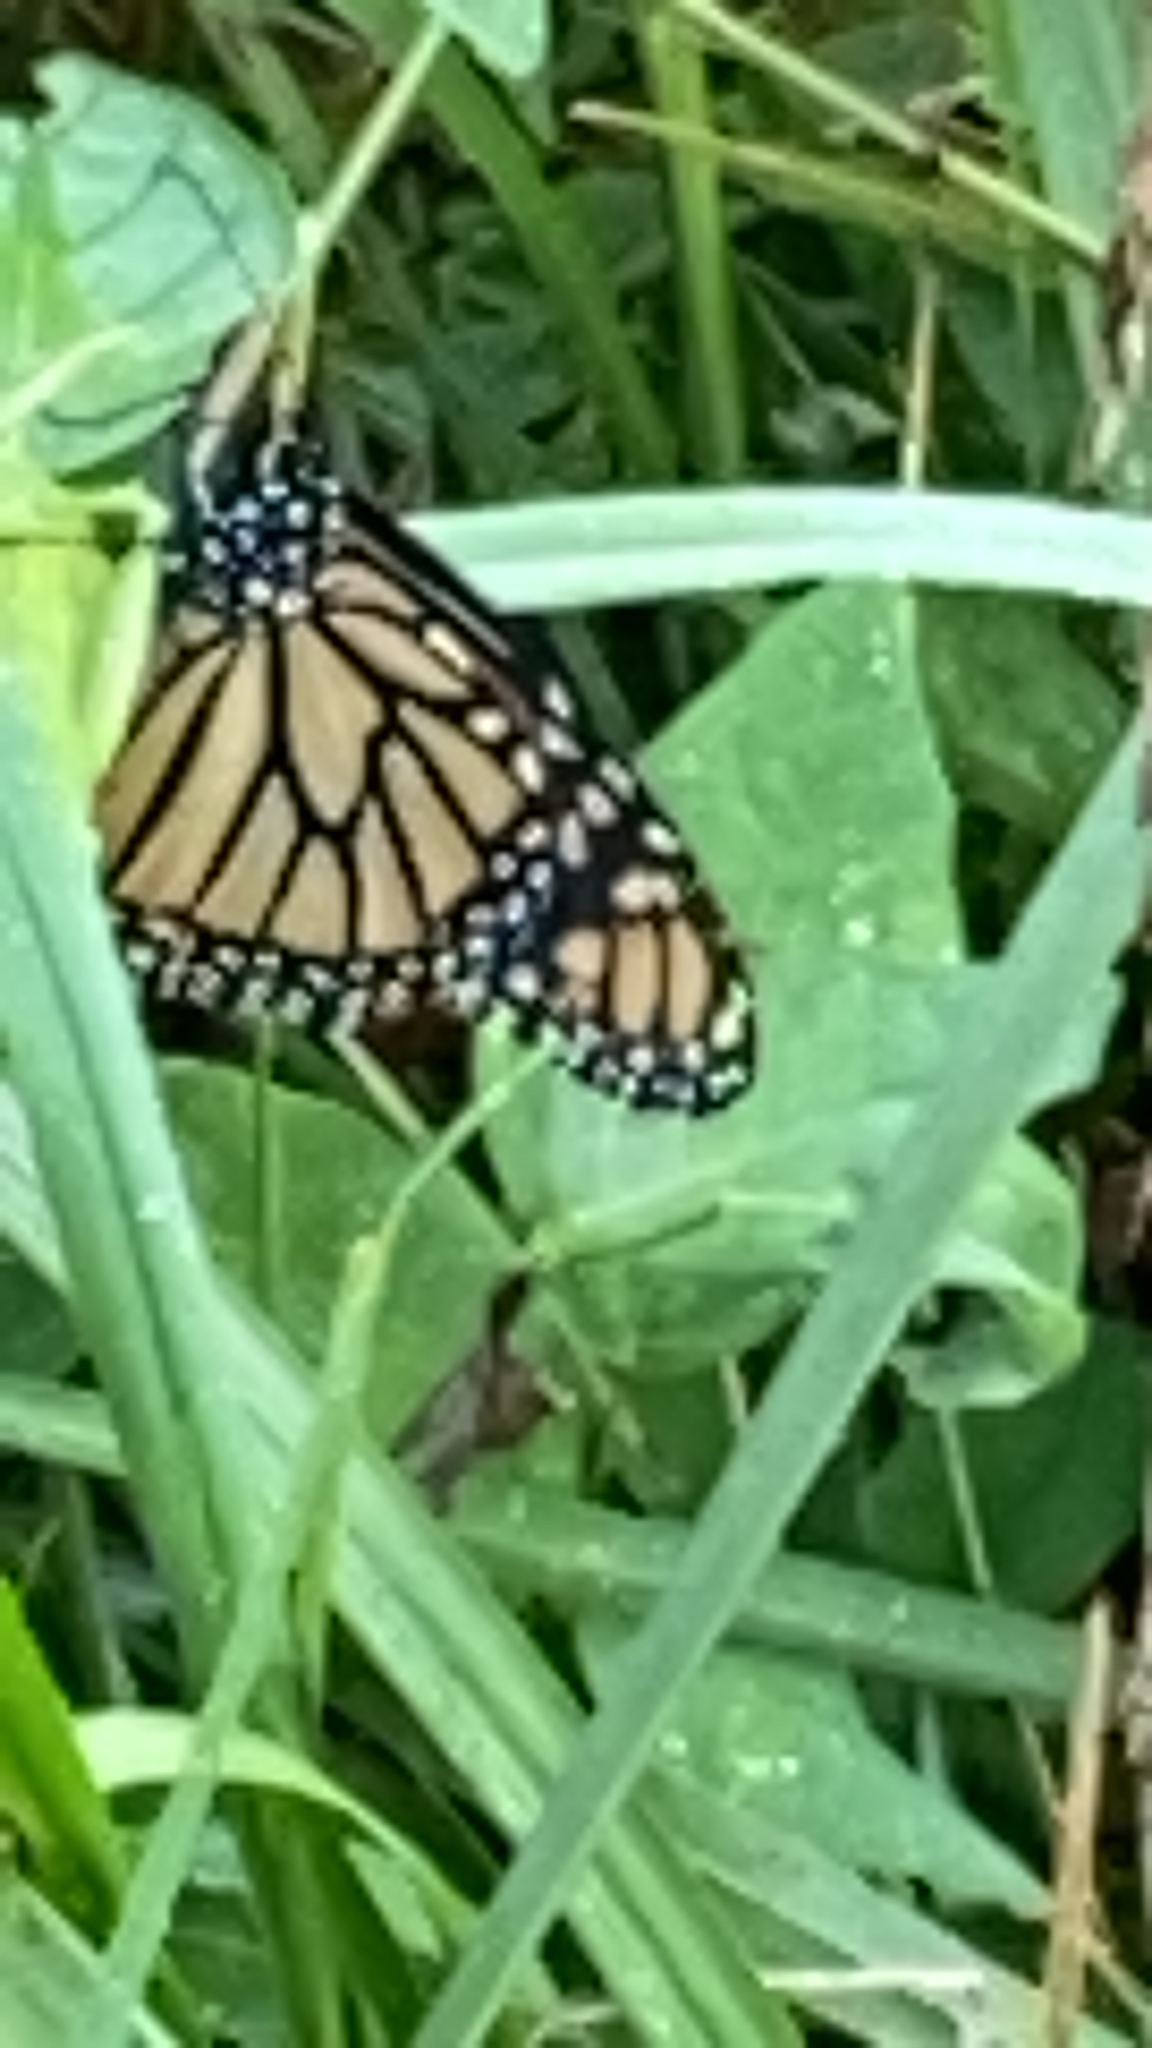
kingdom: Animalia
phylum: Arthropoda
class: Insecta
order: Lepidoptera
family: Nymphalidae
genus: Danaus
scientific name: Danaus plexippus
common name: Monarch
